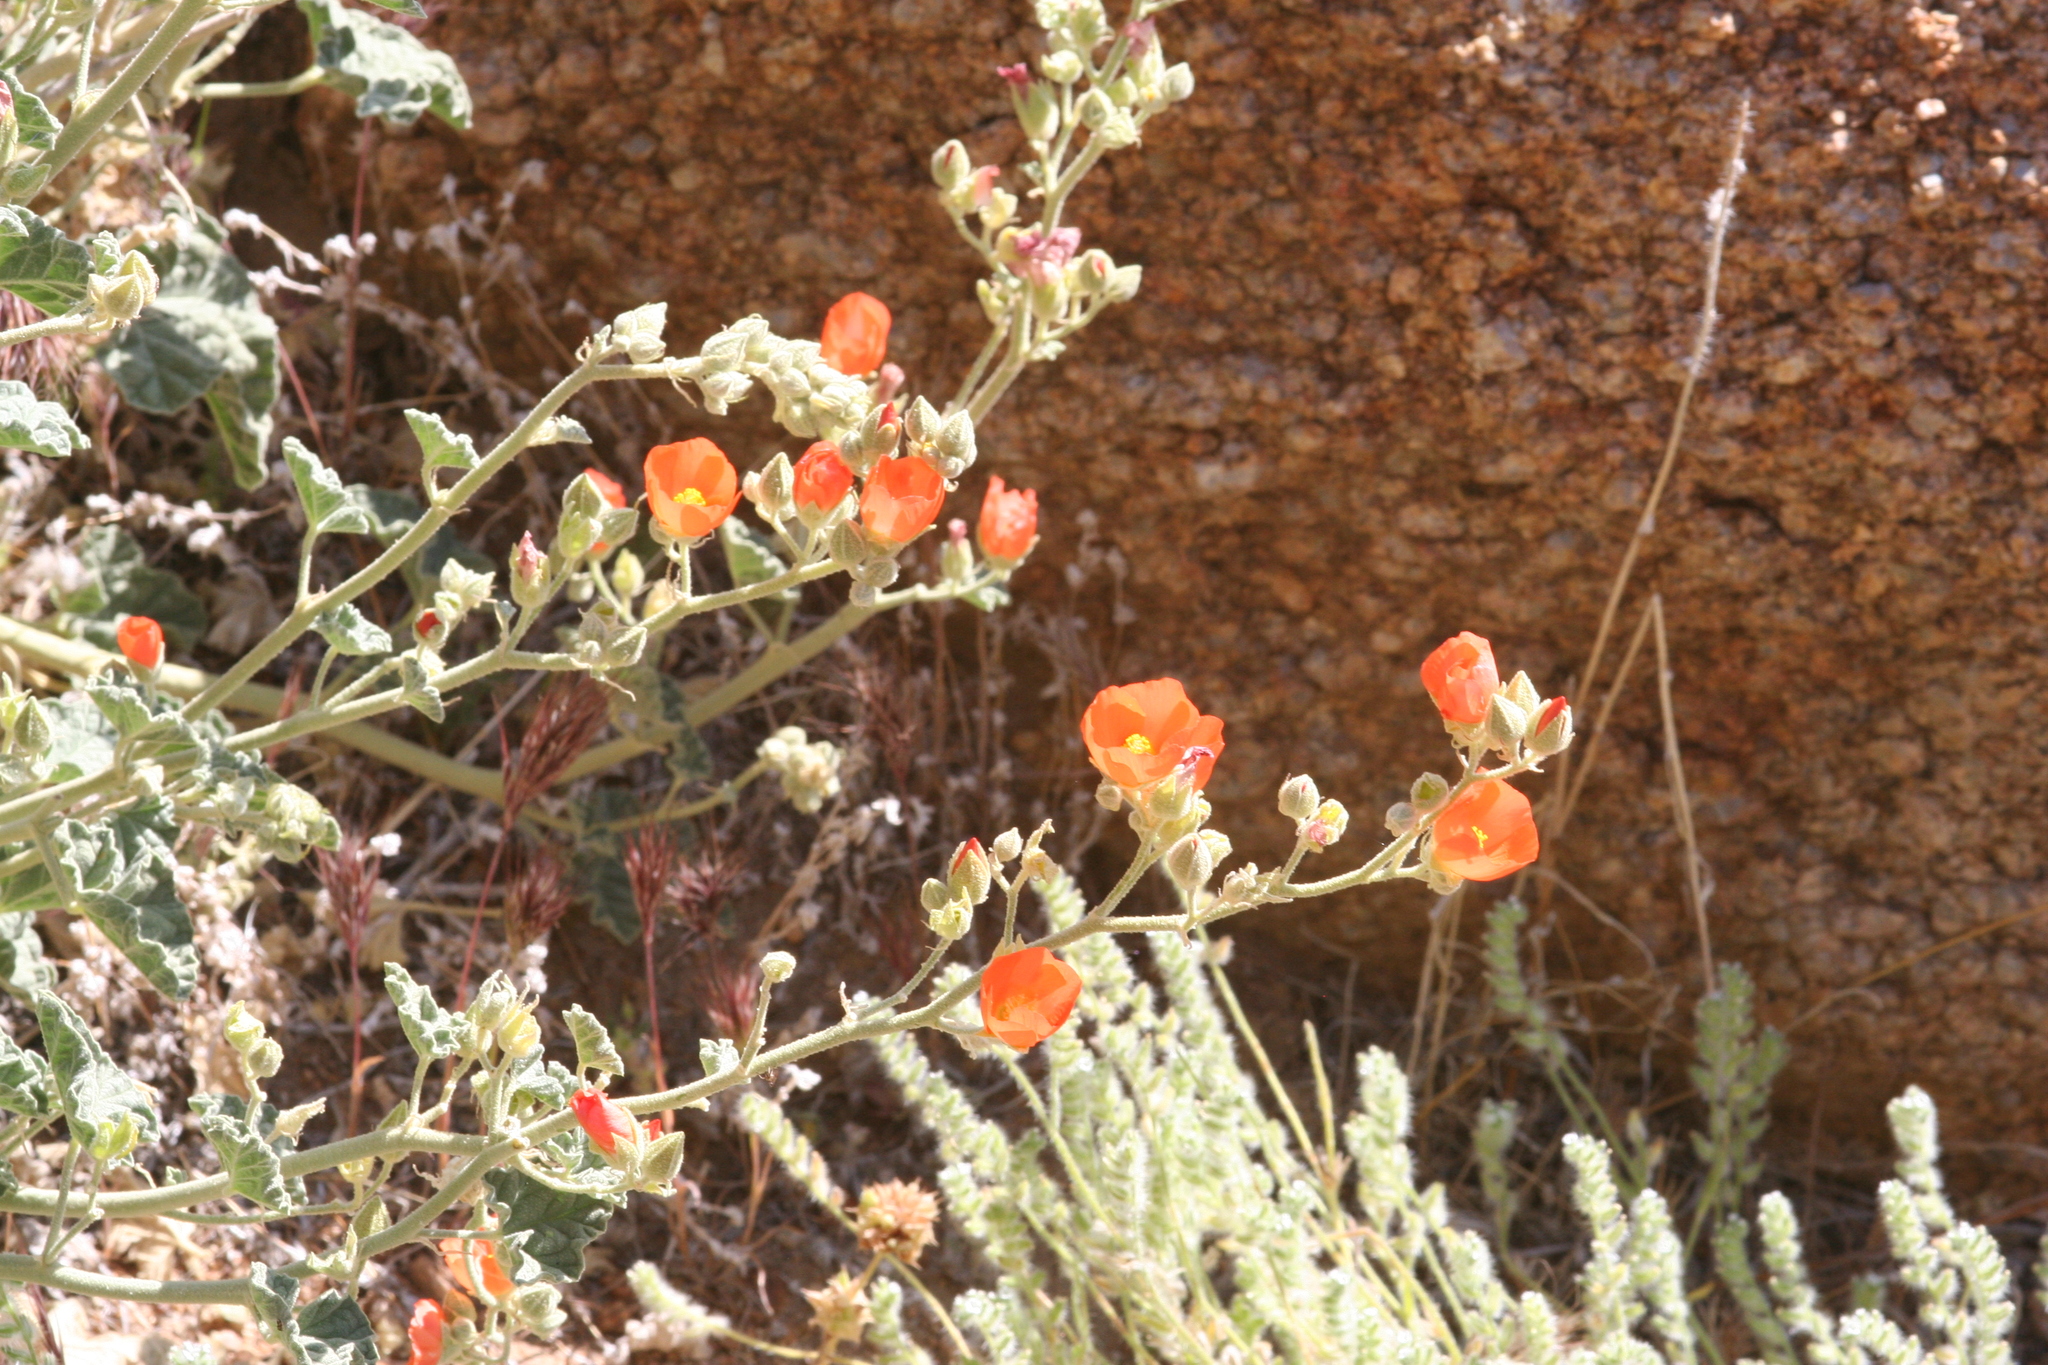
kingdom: Plantae
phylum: Tracheophyta
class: Magnoliopsida
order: Malvales
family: Malvaceae
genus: Sphaeralcea
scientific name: Sphaeralcea ambigua
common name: Apricot globe-mallow
